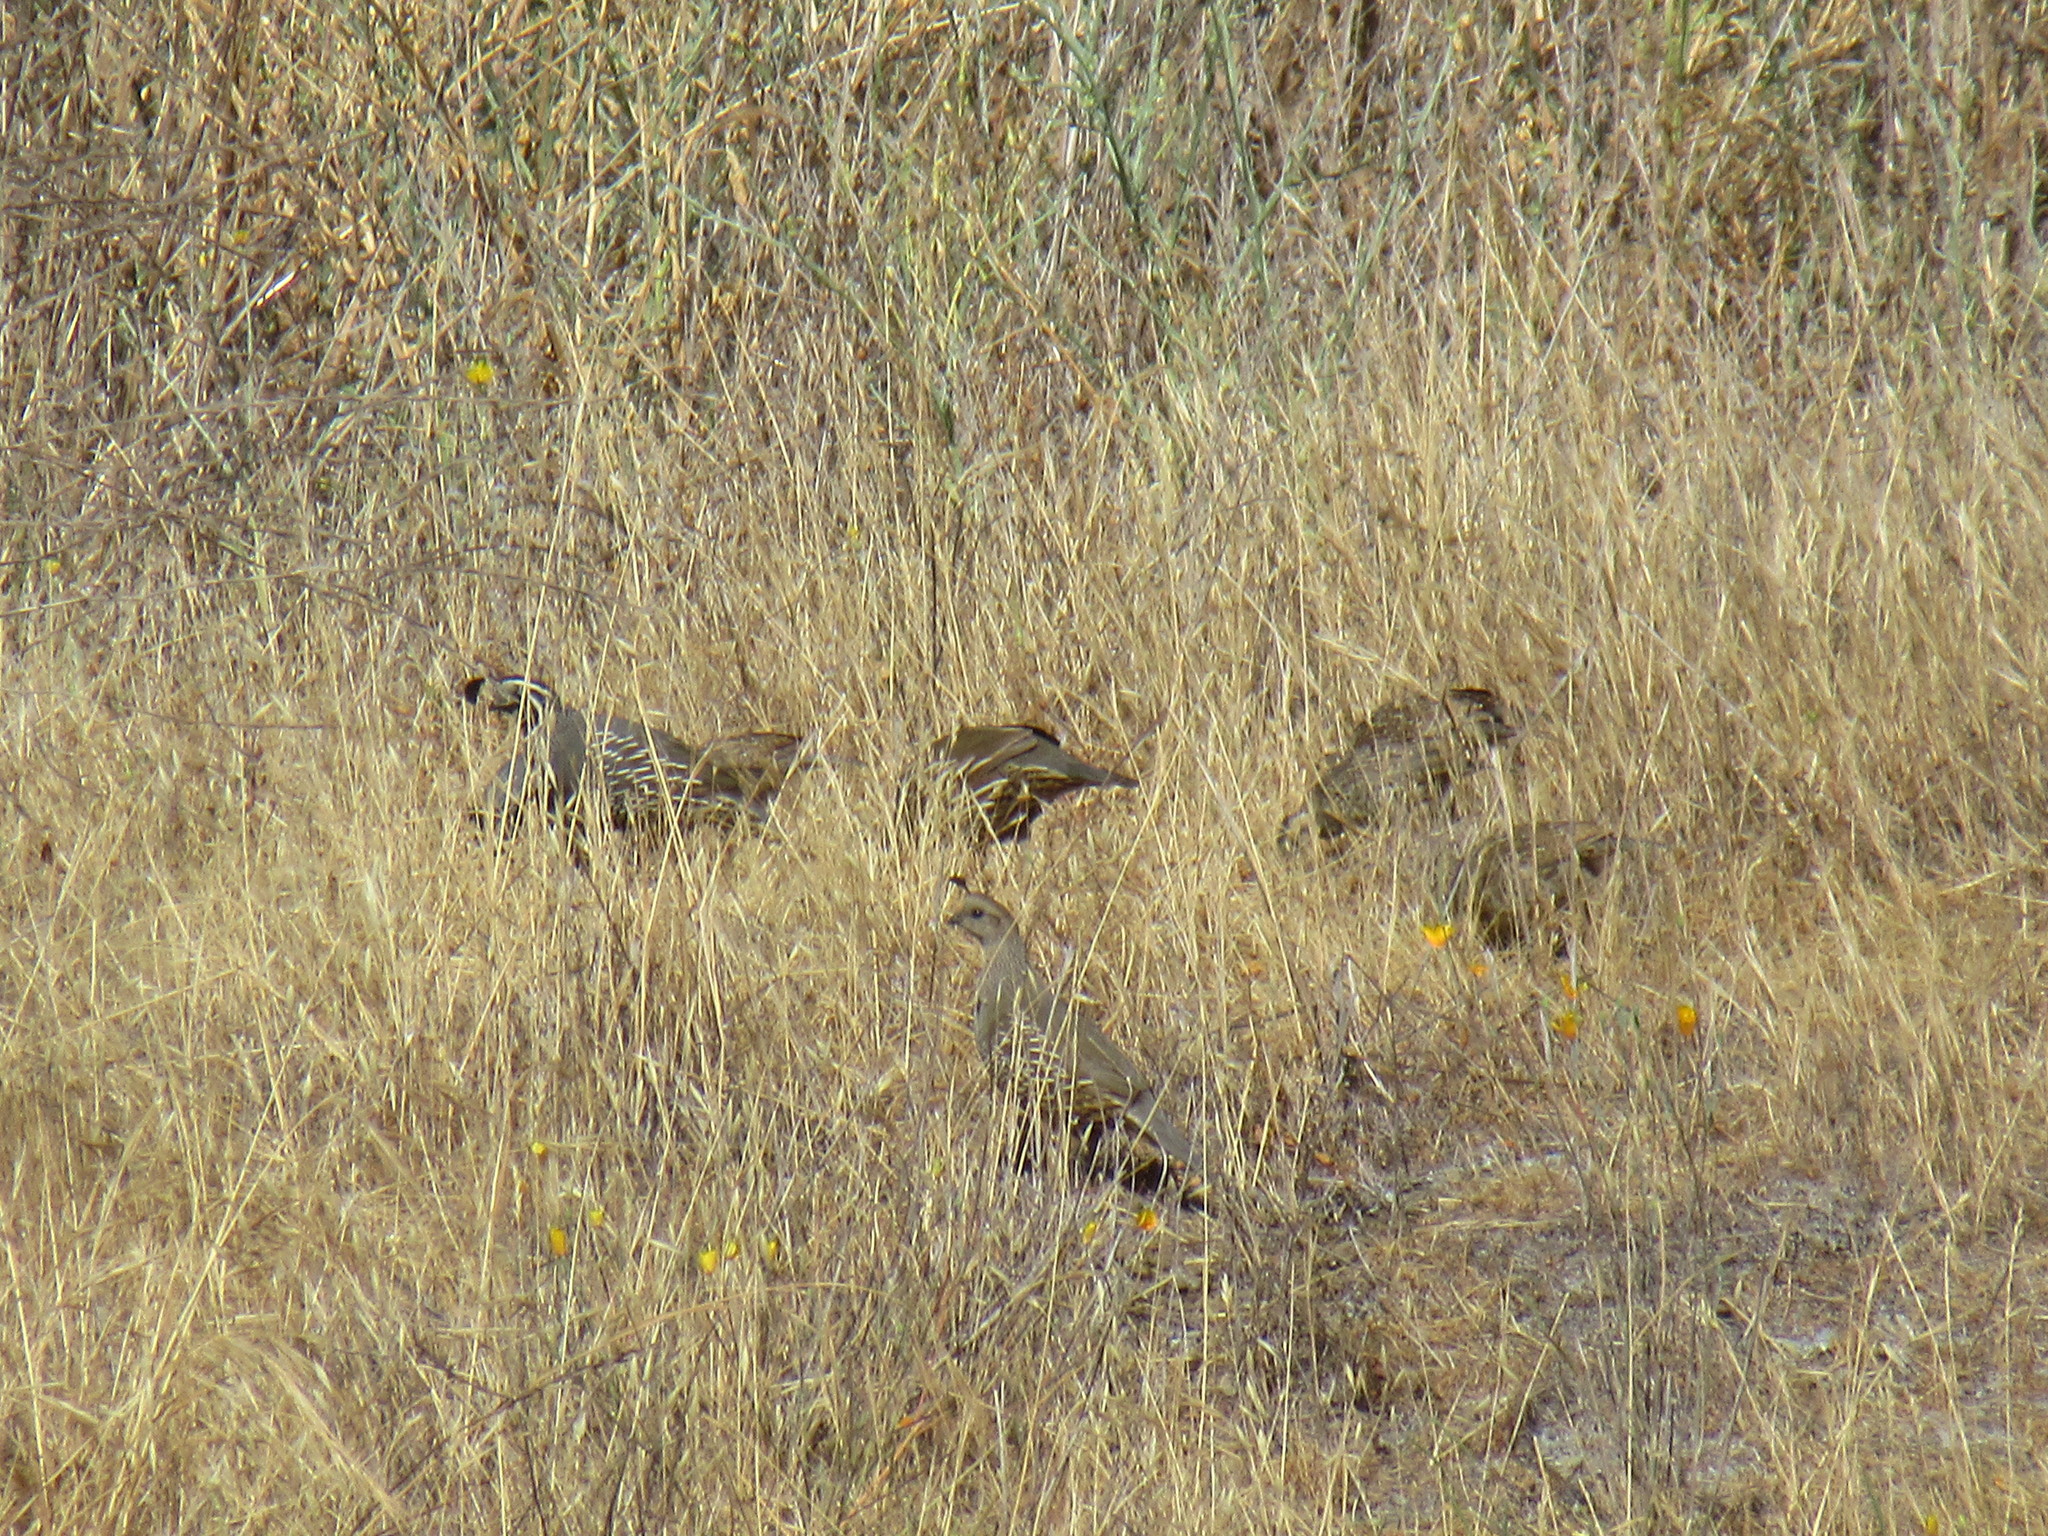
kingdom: Animalia
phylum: Chordata
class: Aves
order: Galliformes
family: Odontophoridae
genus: Callipepla
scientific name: Callipepla californica
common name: California quail
